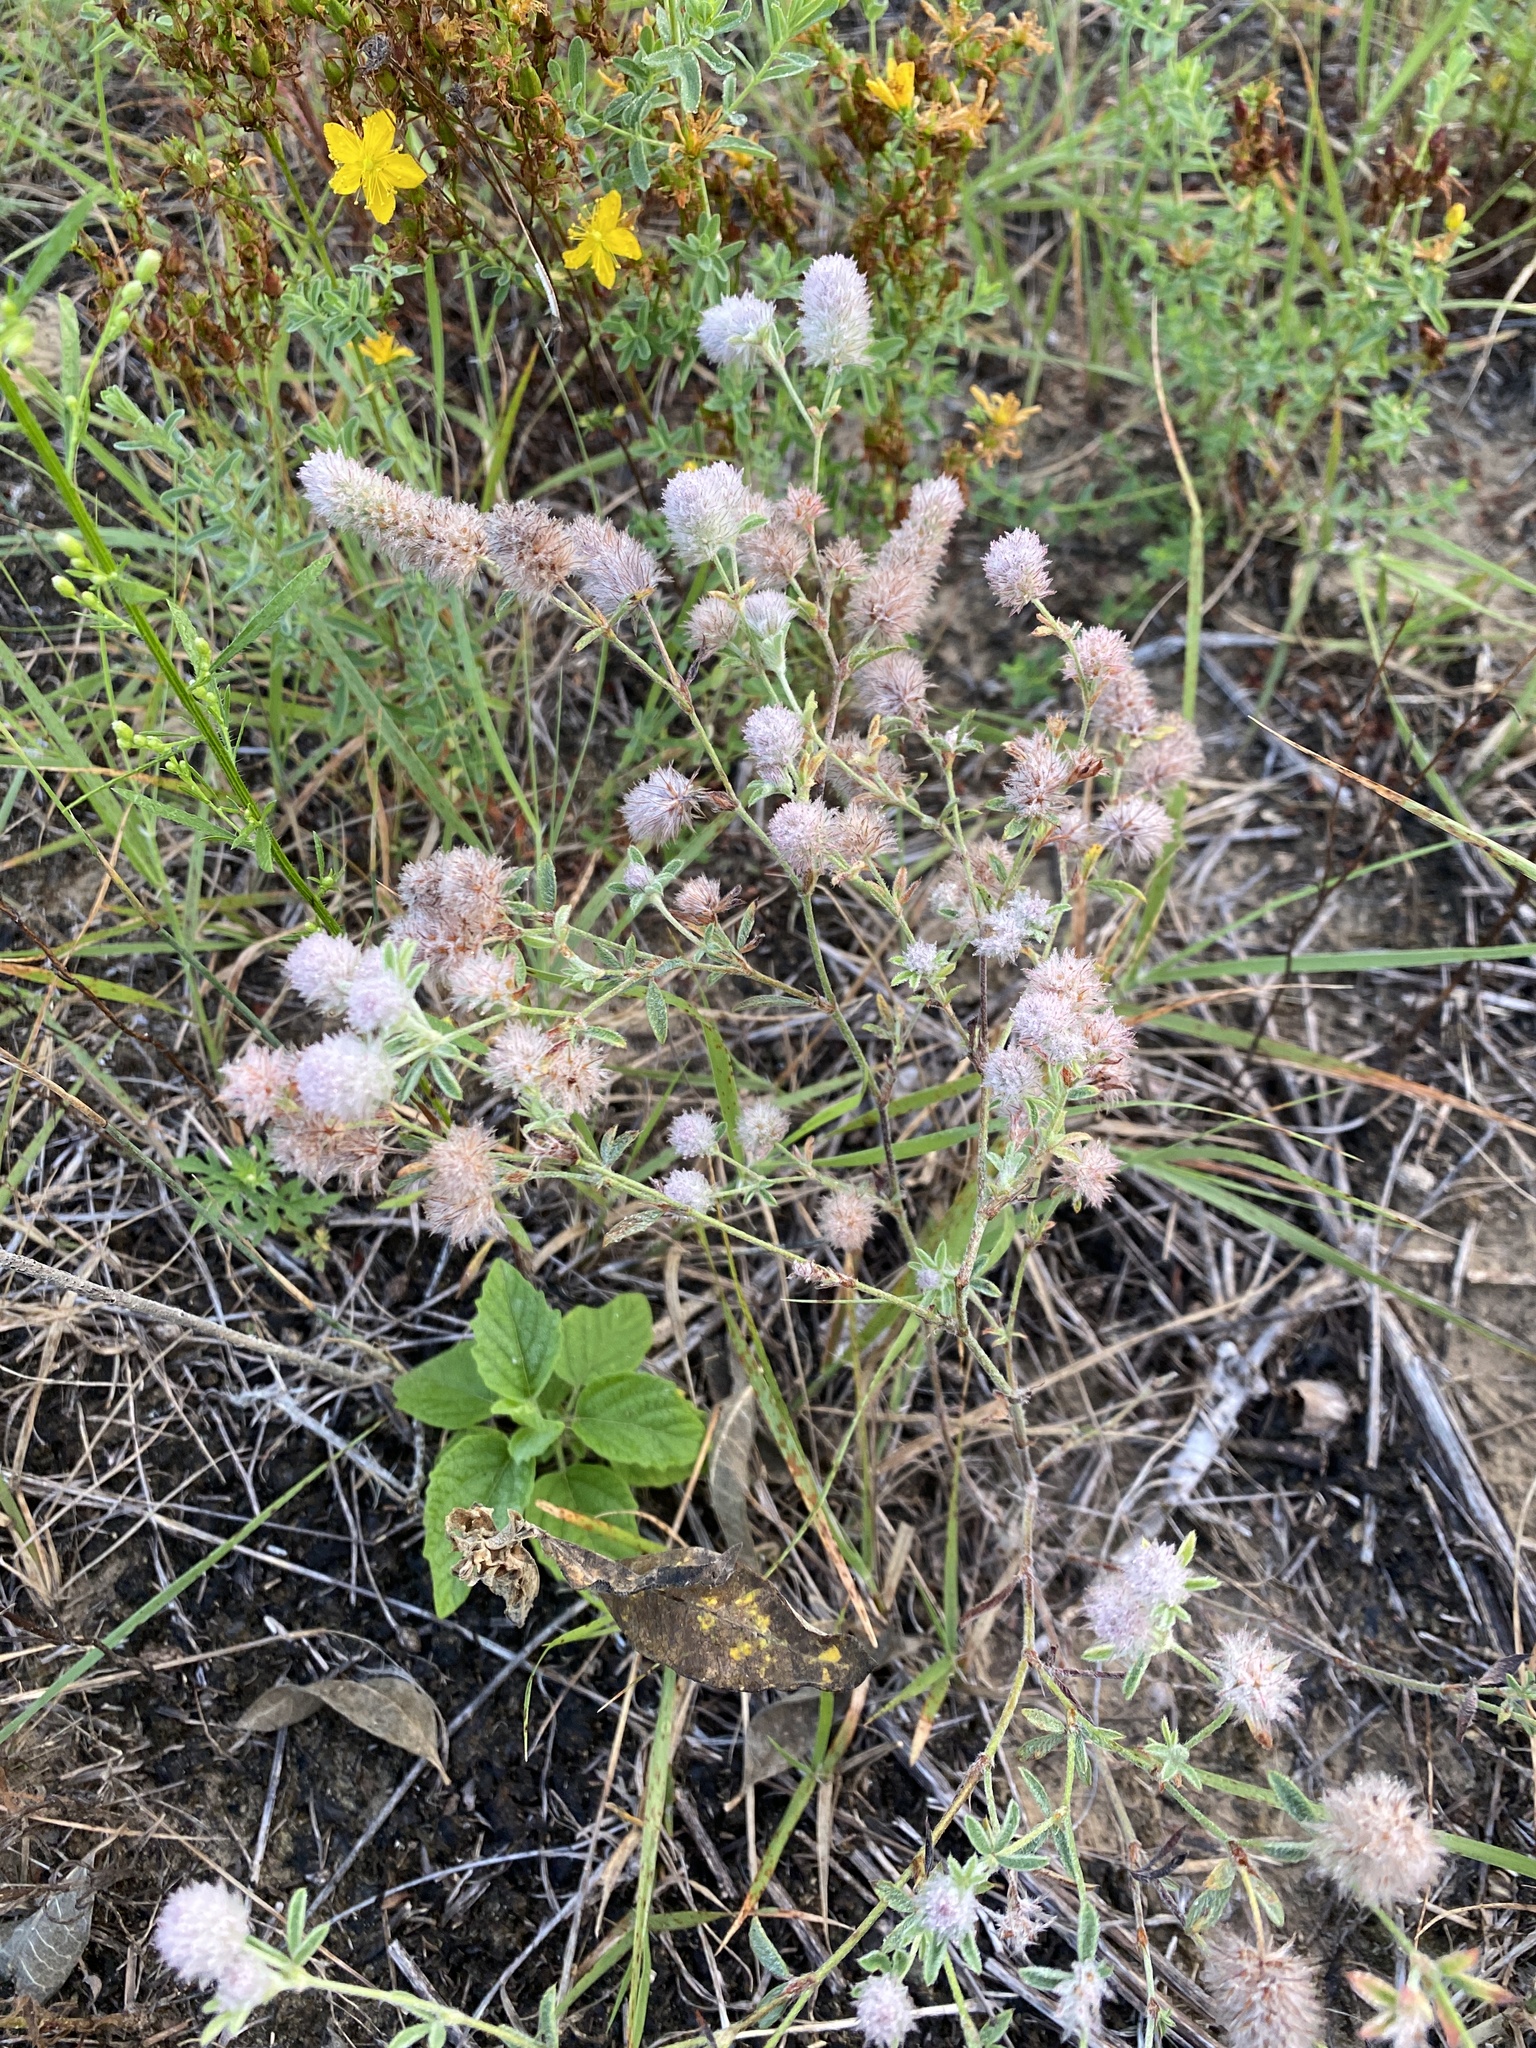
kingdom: Plantae
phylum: Tracheophyta
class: Magnoliopsida
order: Fabales
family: Fabaceae
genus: Trifolium
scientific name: Trifolium arvense
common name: Hare's-foot clover
